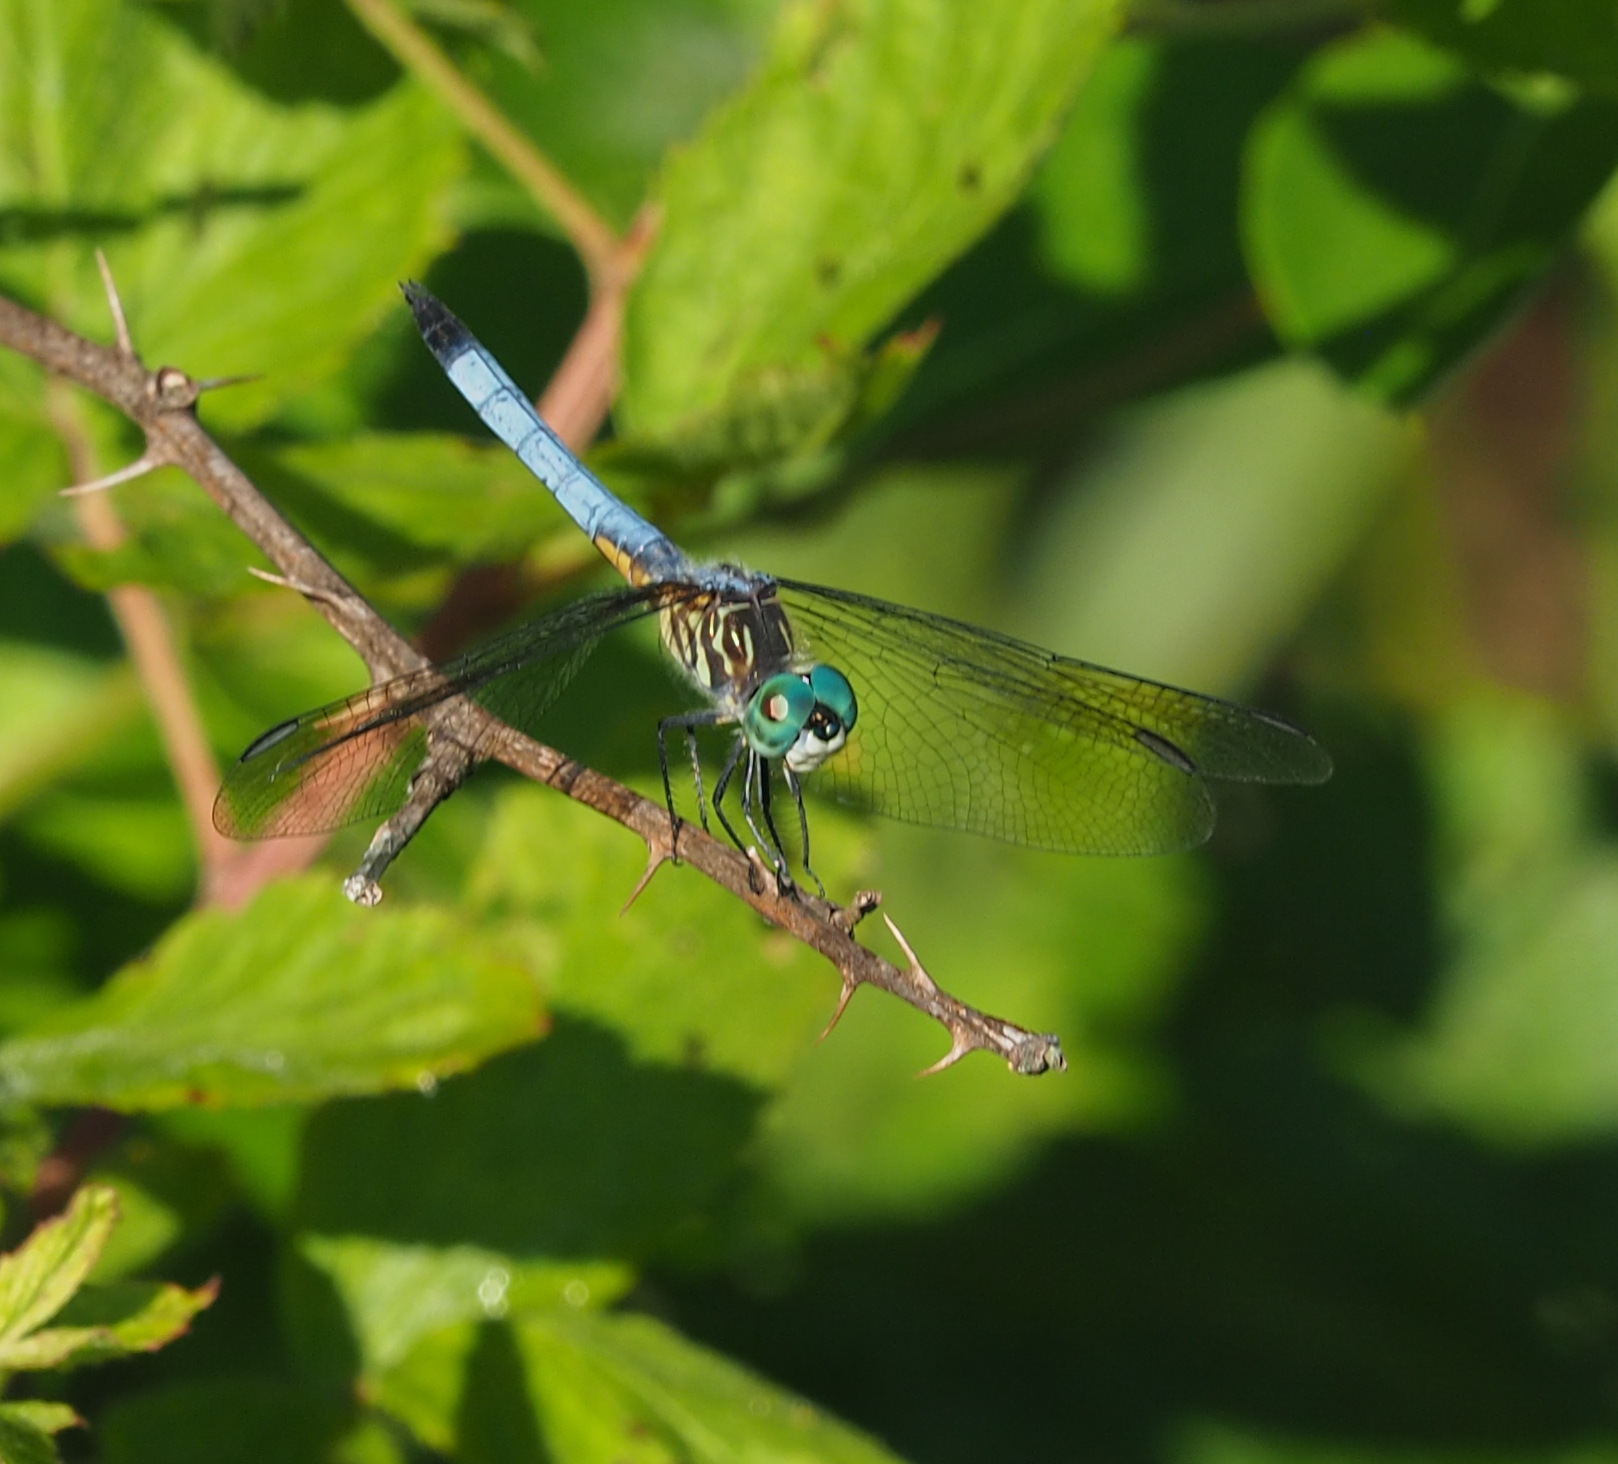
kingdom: Animalia
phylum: Arthropoda
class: Insecta
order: Odonata
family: Libellulidae
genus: Pachydiplax
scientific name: Pachydiplax longipennis
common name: Blue dasher
